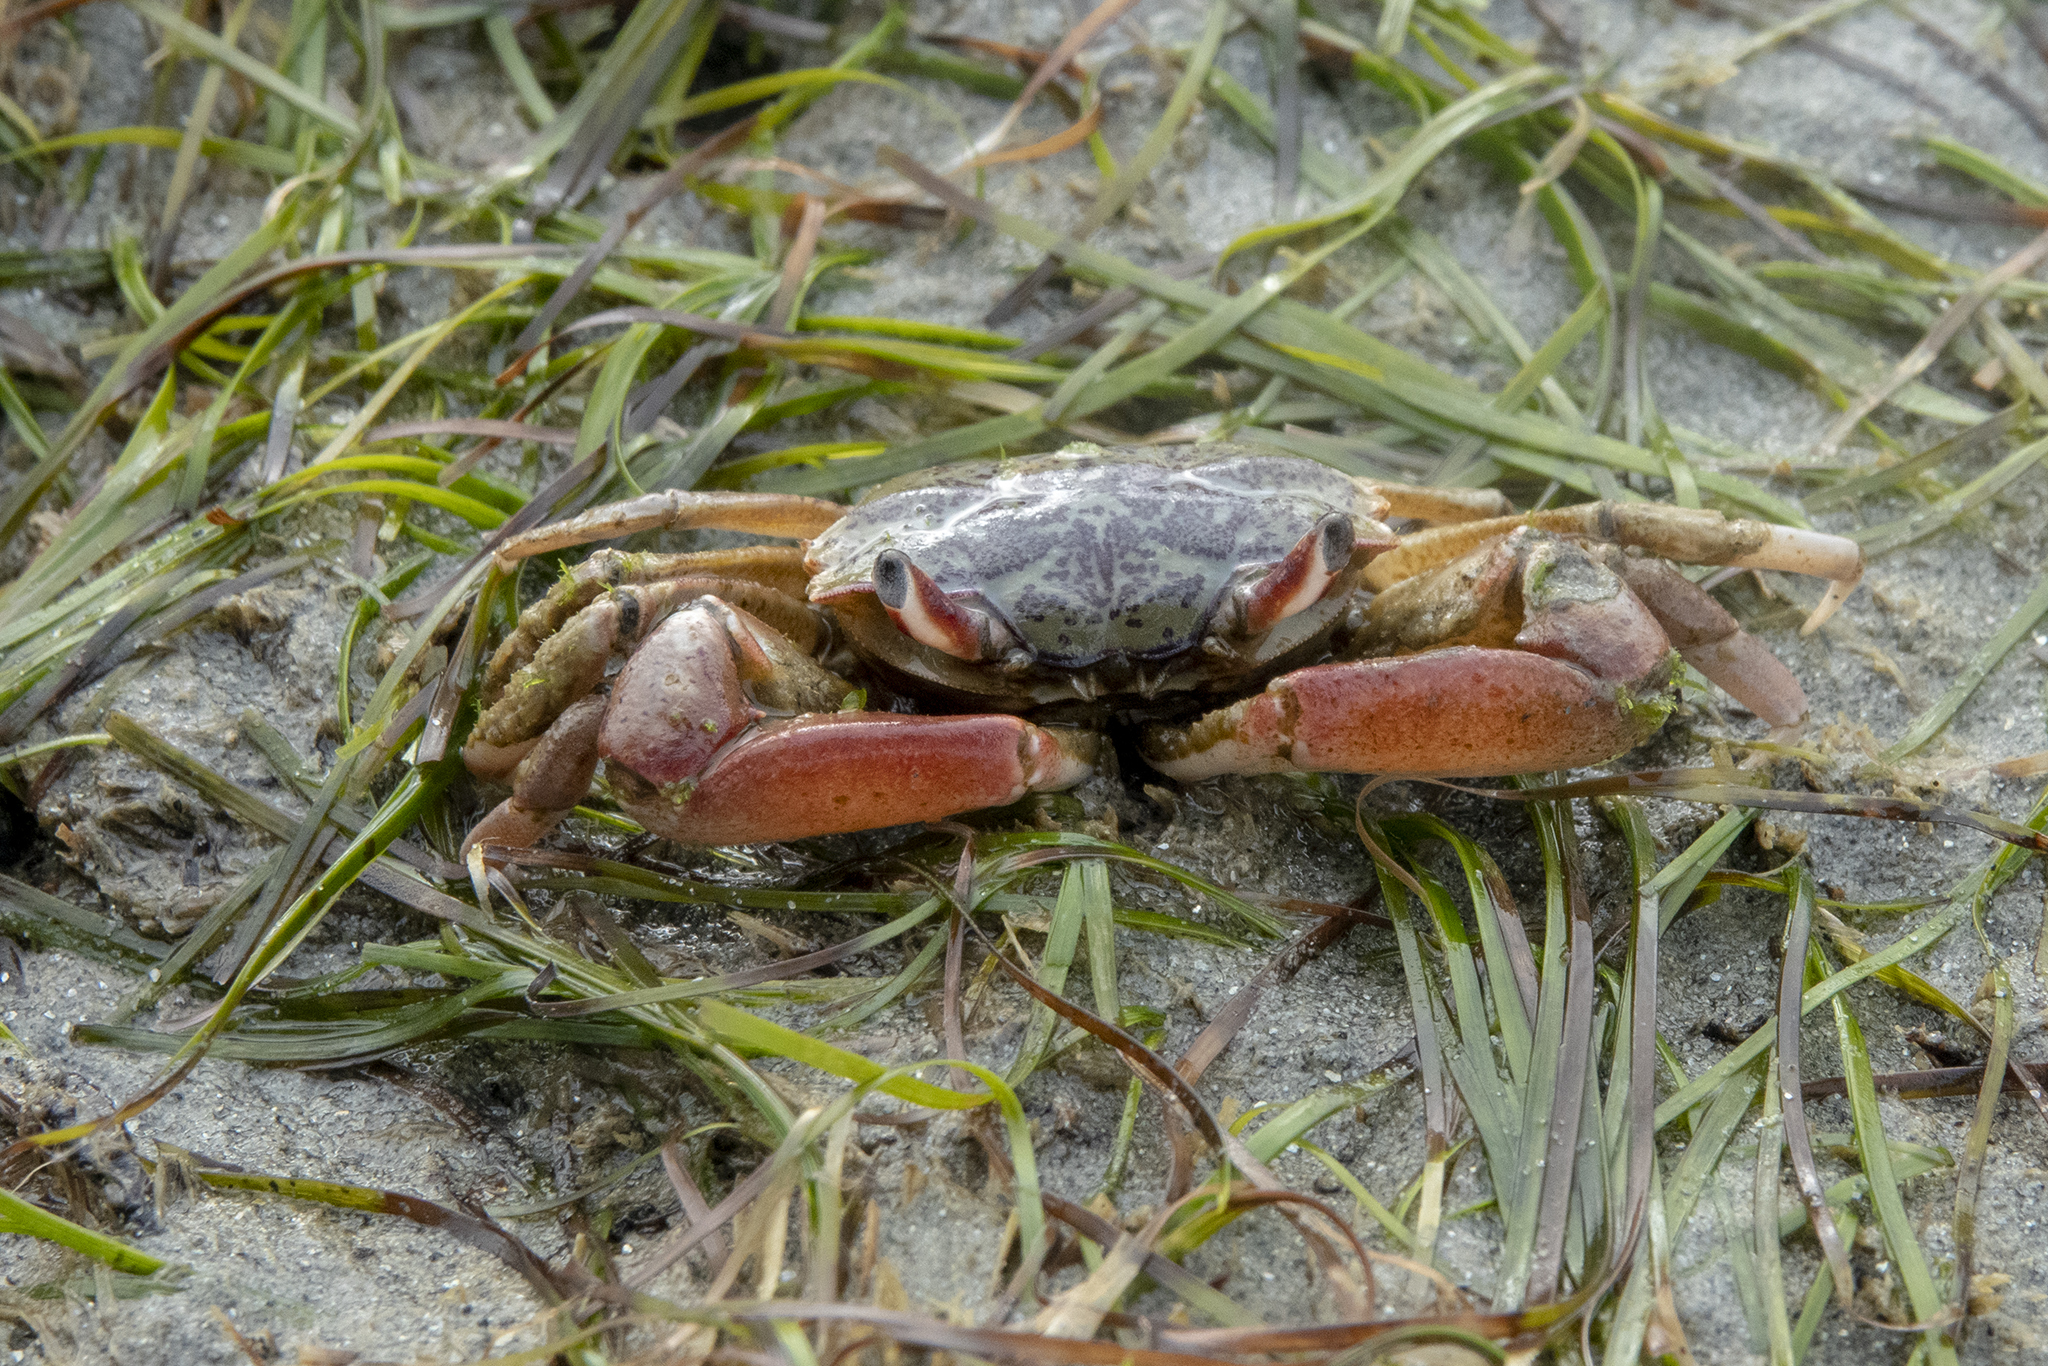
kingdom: Animalia
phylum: Arthropoda
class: Malacostraca
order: Decapoda
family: Macrophthalmidae
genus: Hemiplax
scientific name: Hemiplax hirtipes
